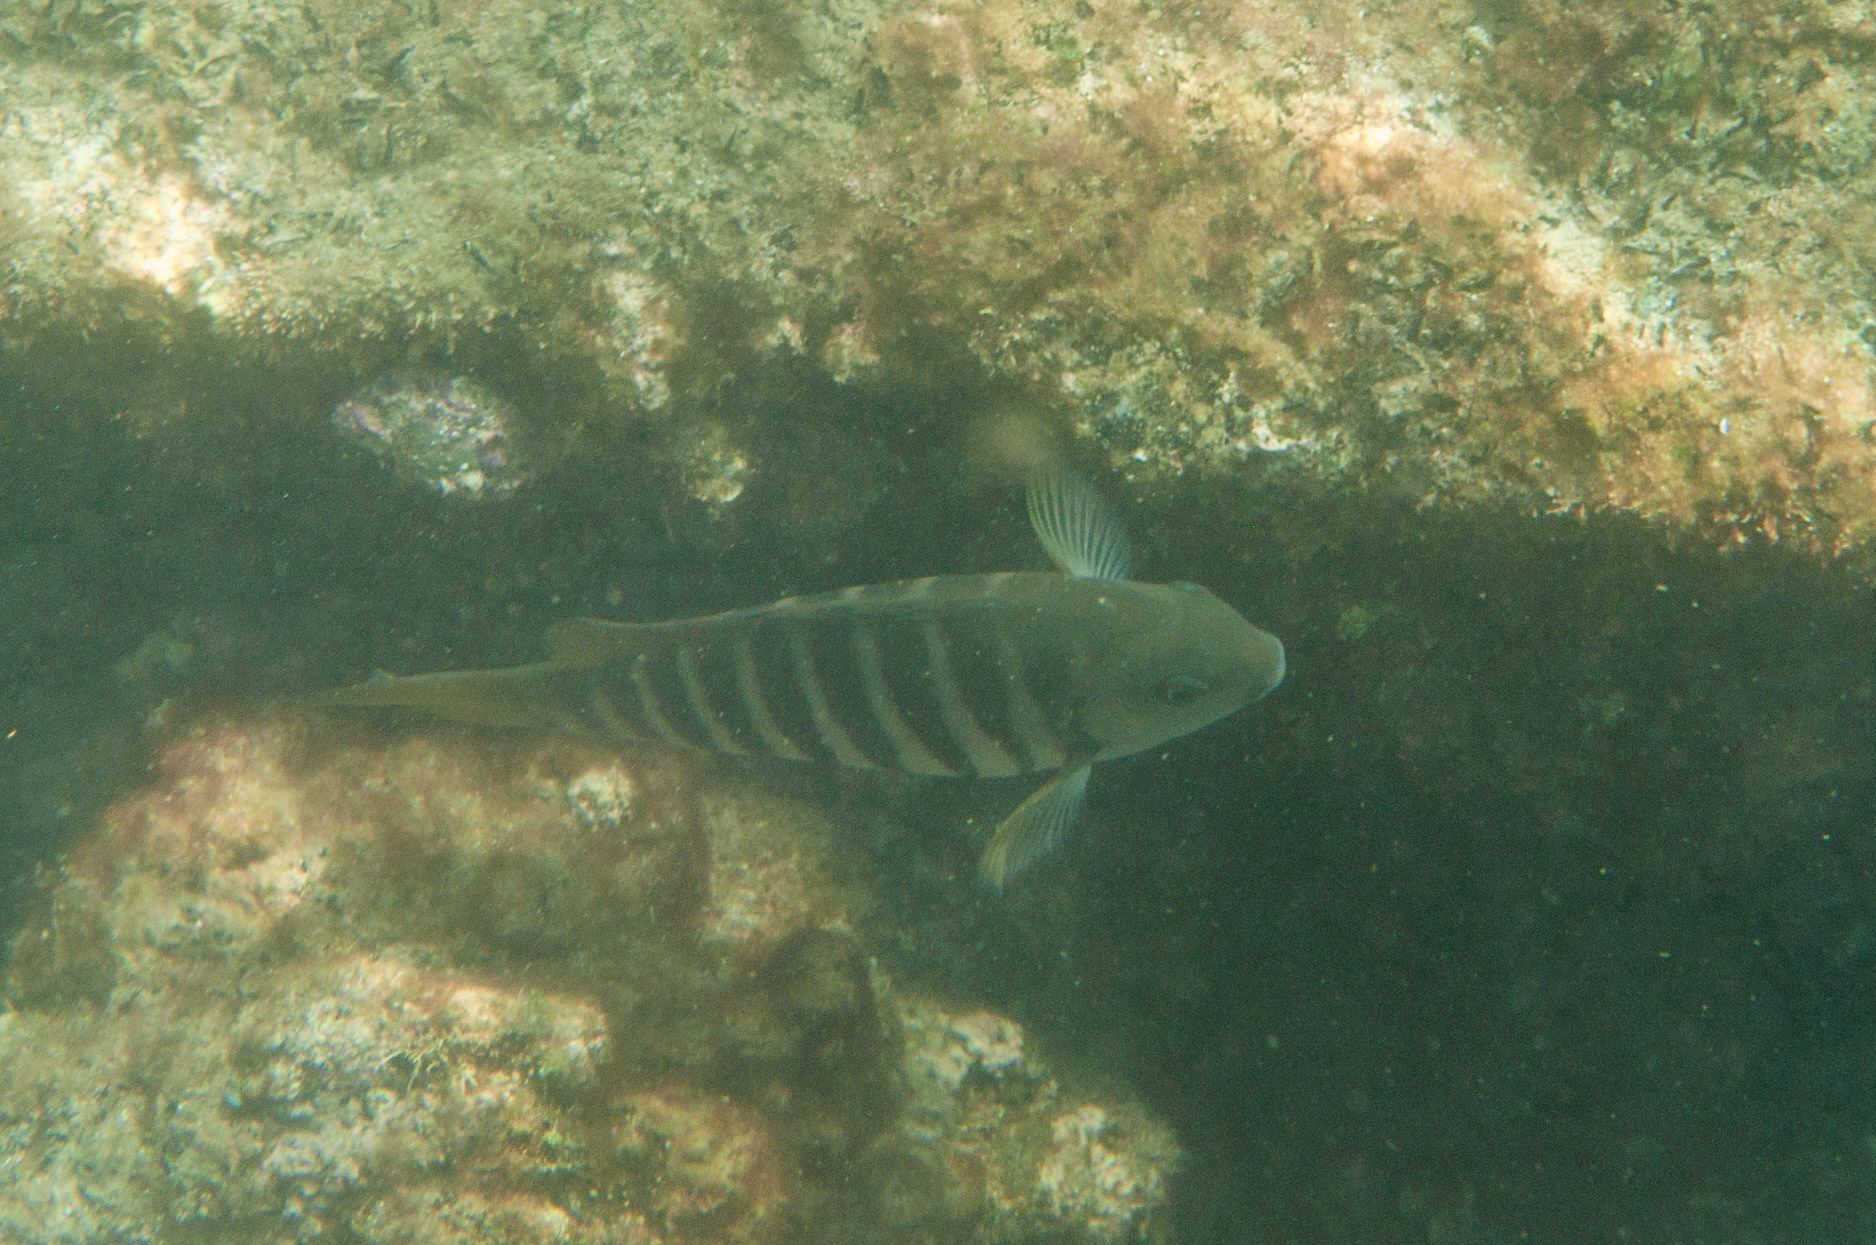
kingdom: Animalia
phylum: Chordata
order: Perciformes
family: Kyphosidae
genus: Girella
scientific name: Girella zebra
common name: Stripey bream
